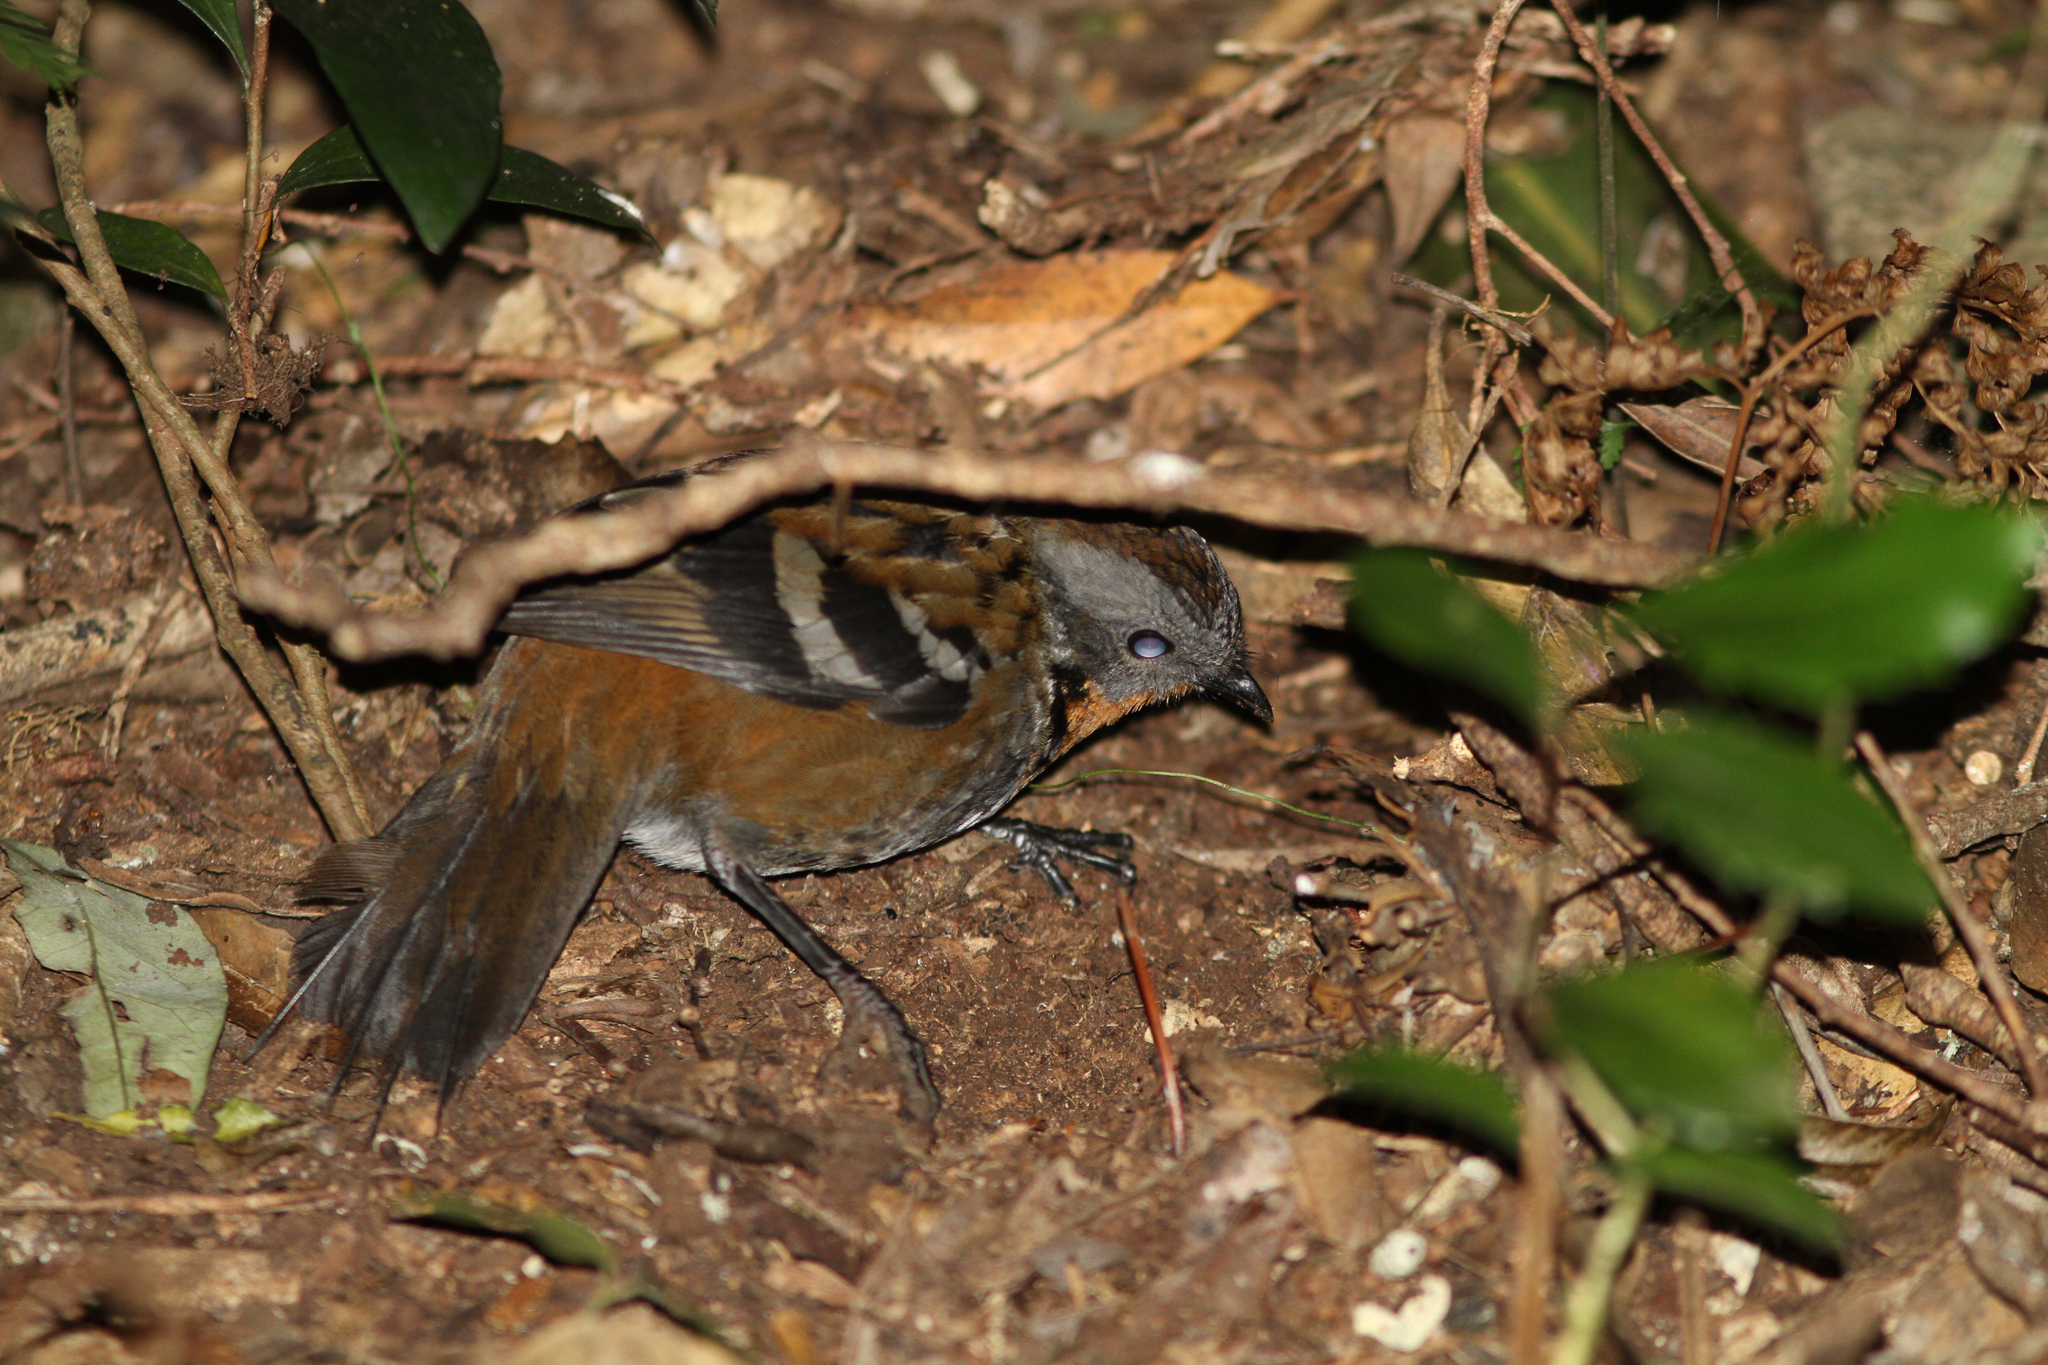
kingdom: Animalia
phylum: Chordata
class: Aves
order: Passeriformes
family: Orthonychidae
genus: Orthonyx
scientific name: Orthonyx temminckii
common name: Australian logrunner
